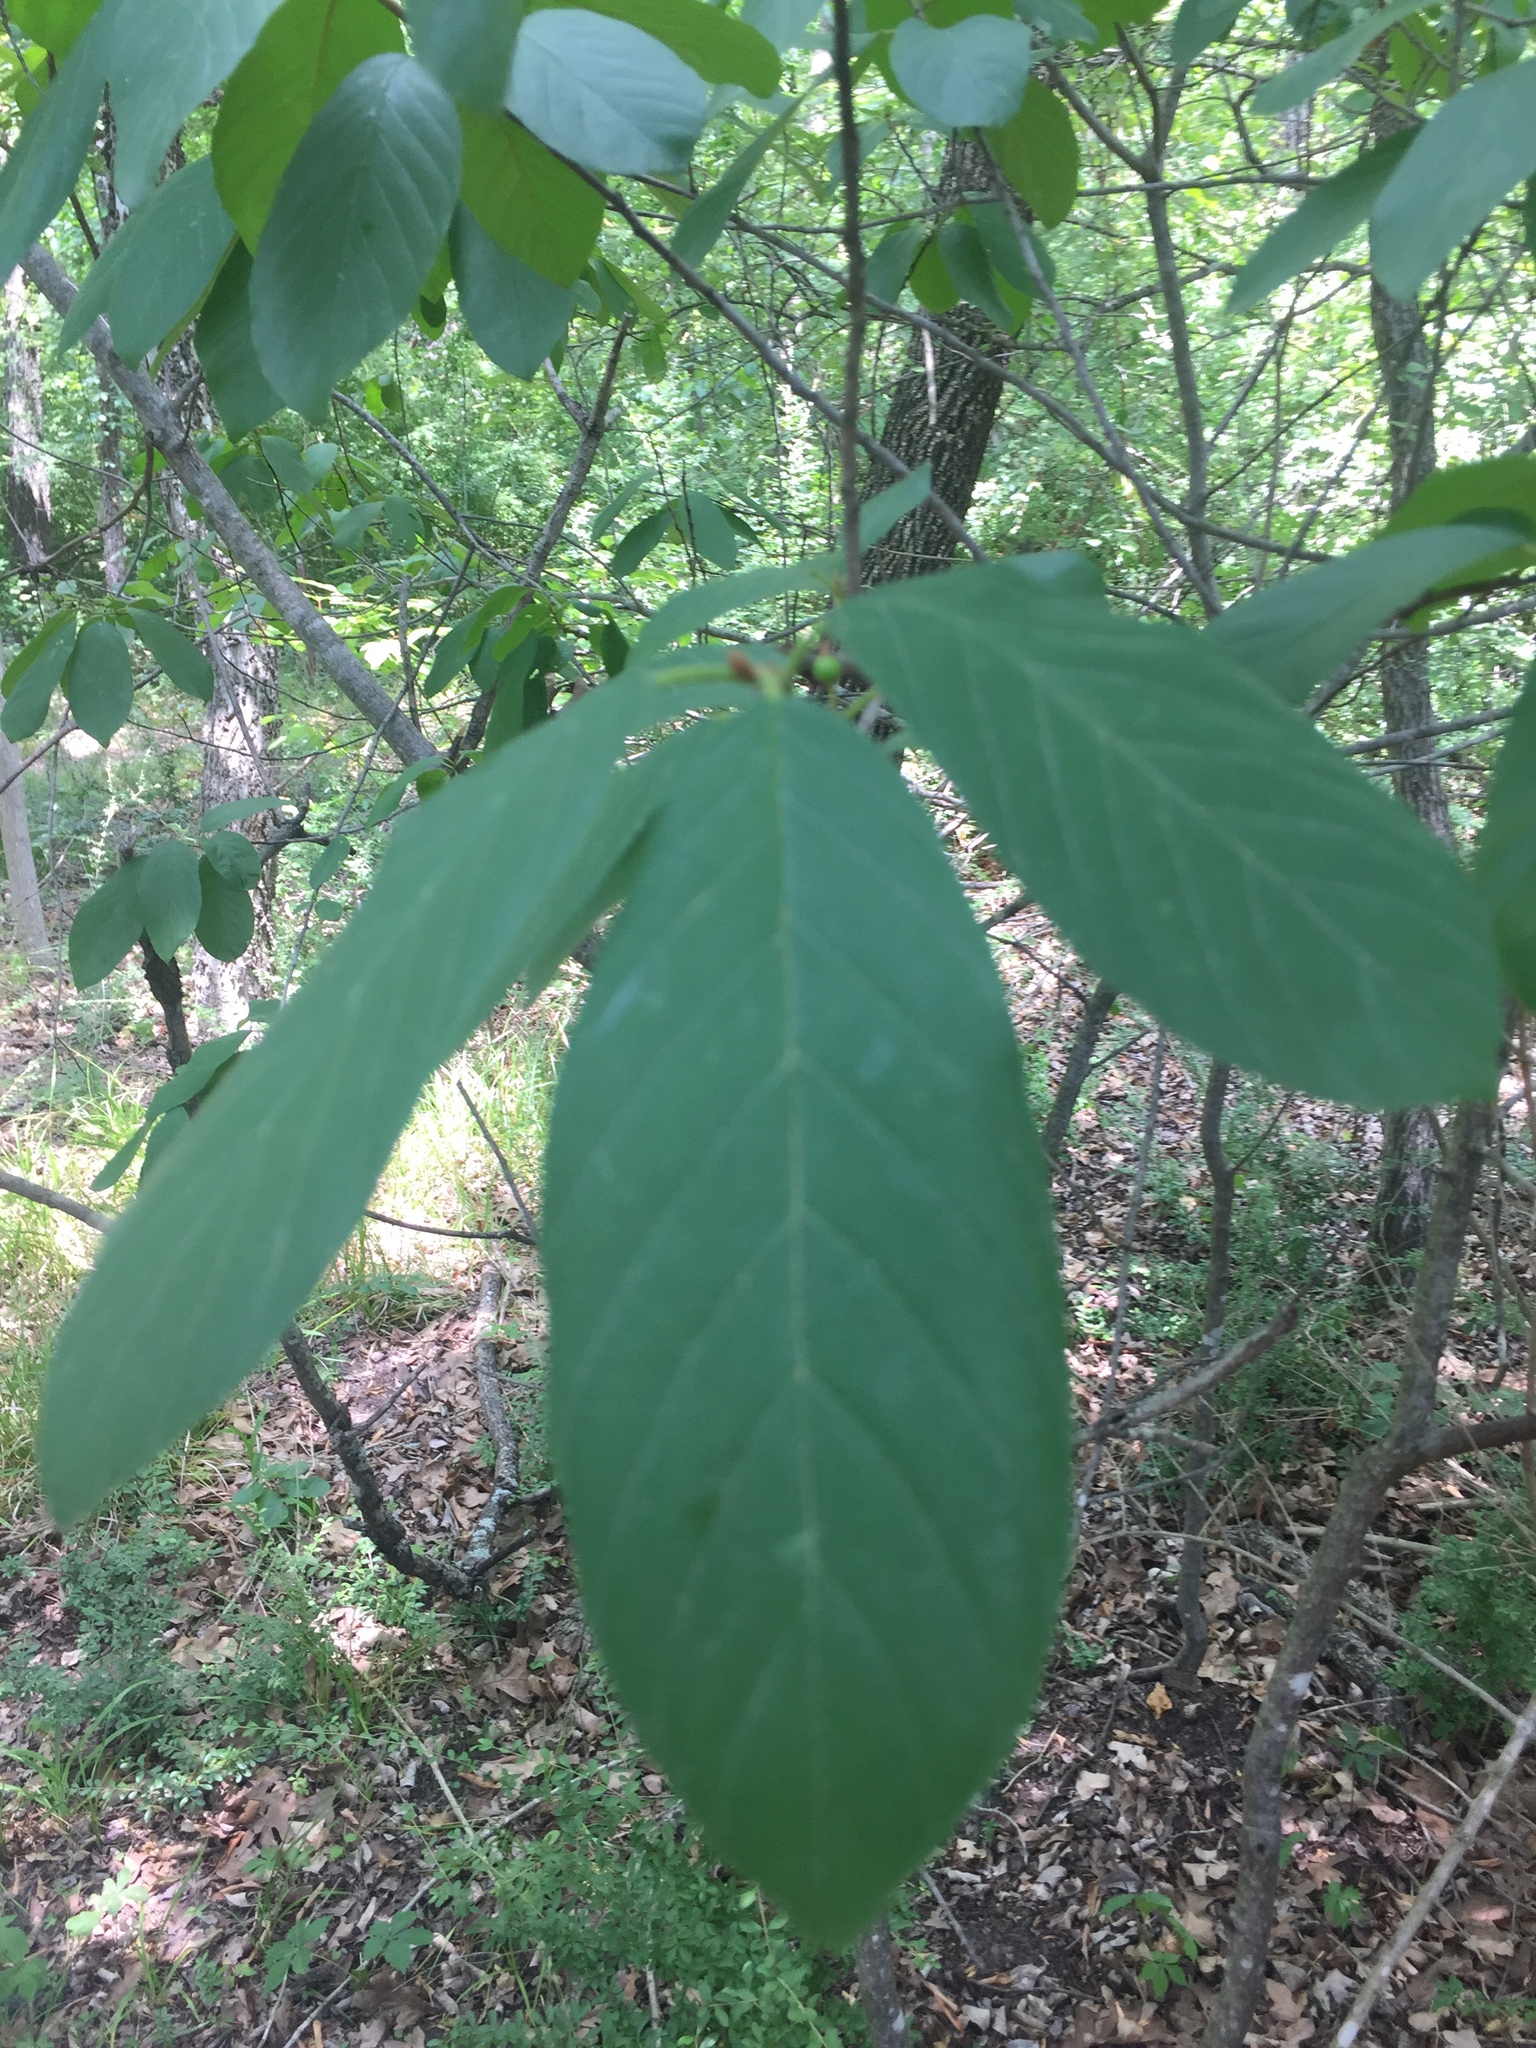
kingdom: Plantae
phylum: Tracheophyta
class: Magnoliopsida
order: Rosales
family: Rhamnaceae
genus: Frangula
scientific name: Frangula caroliniana
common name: Carolina buckthorn
